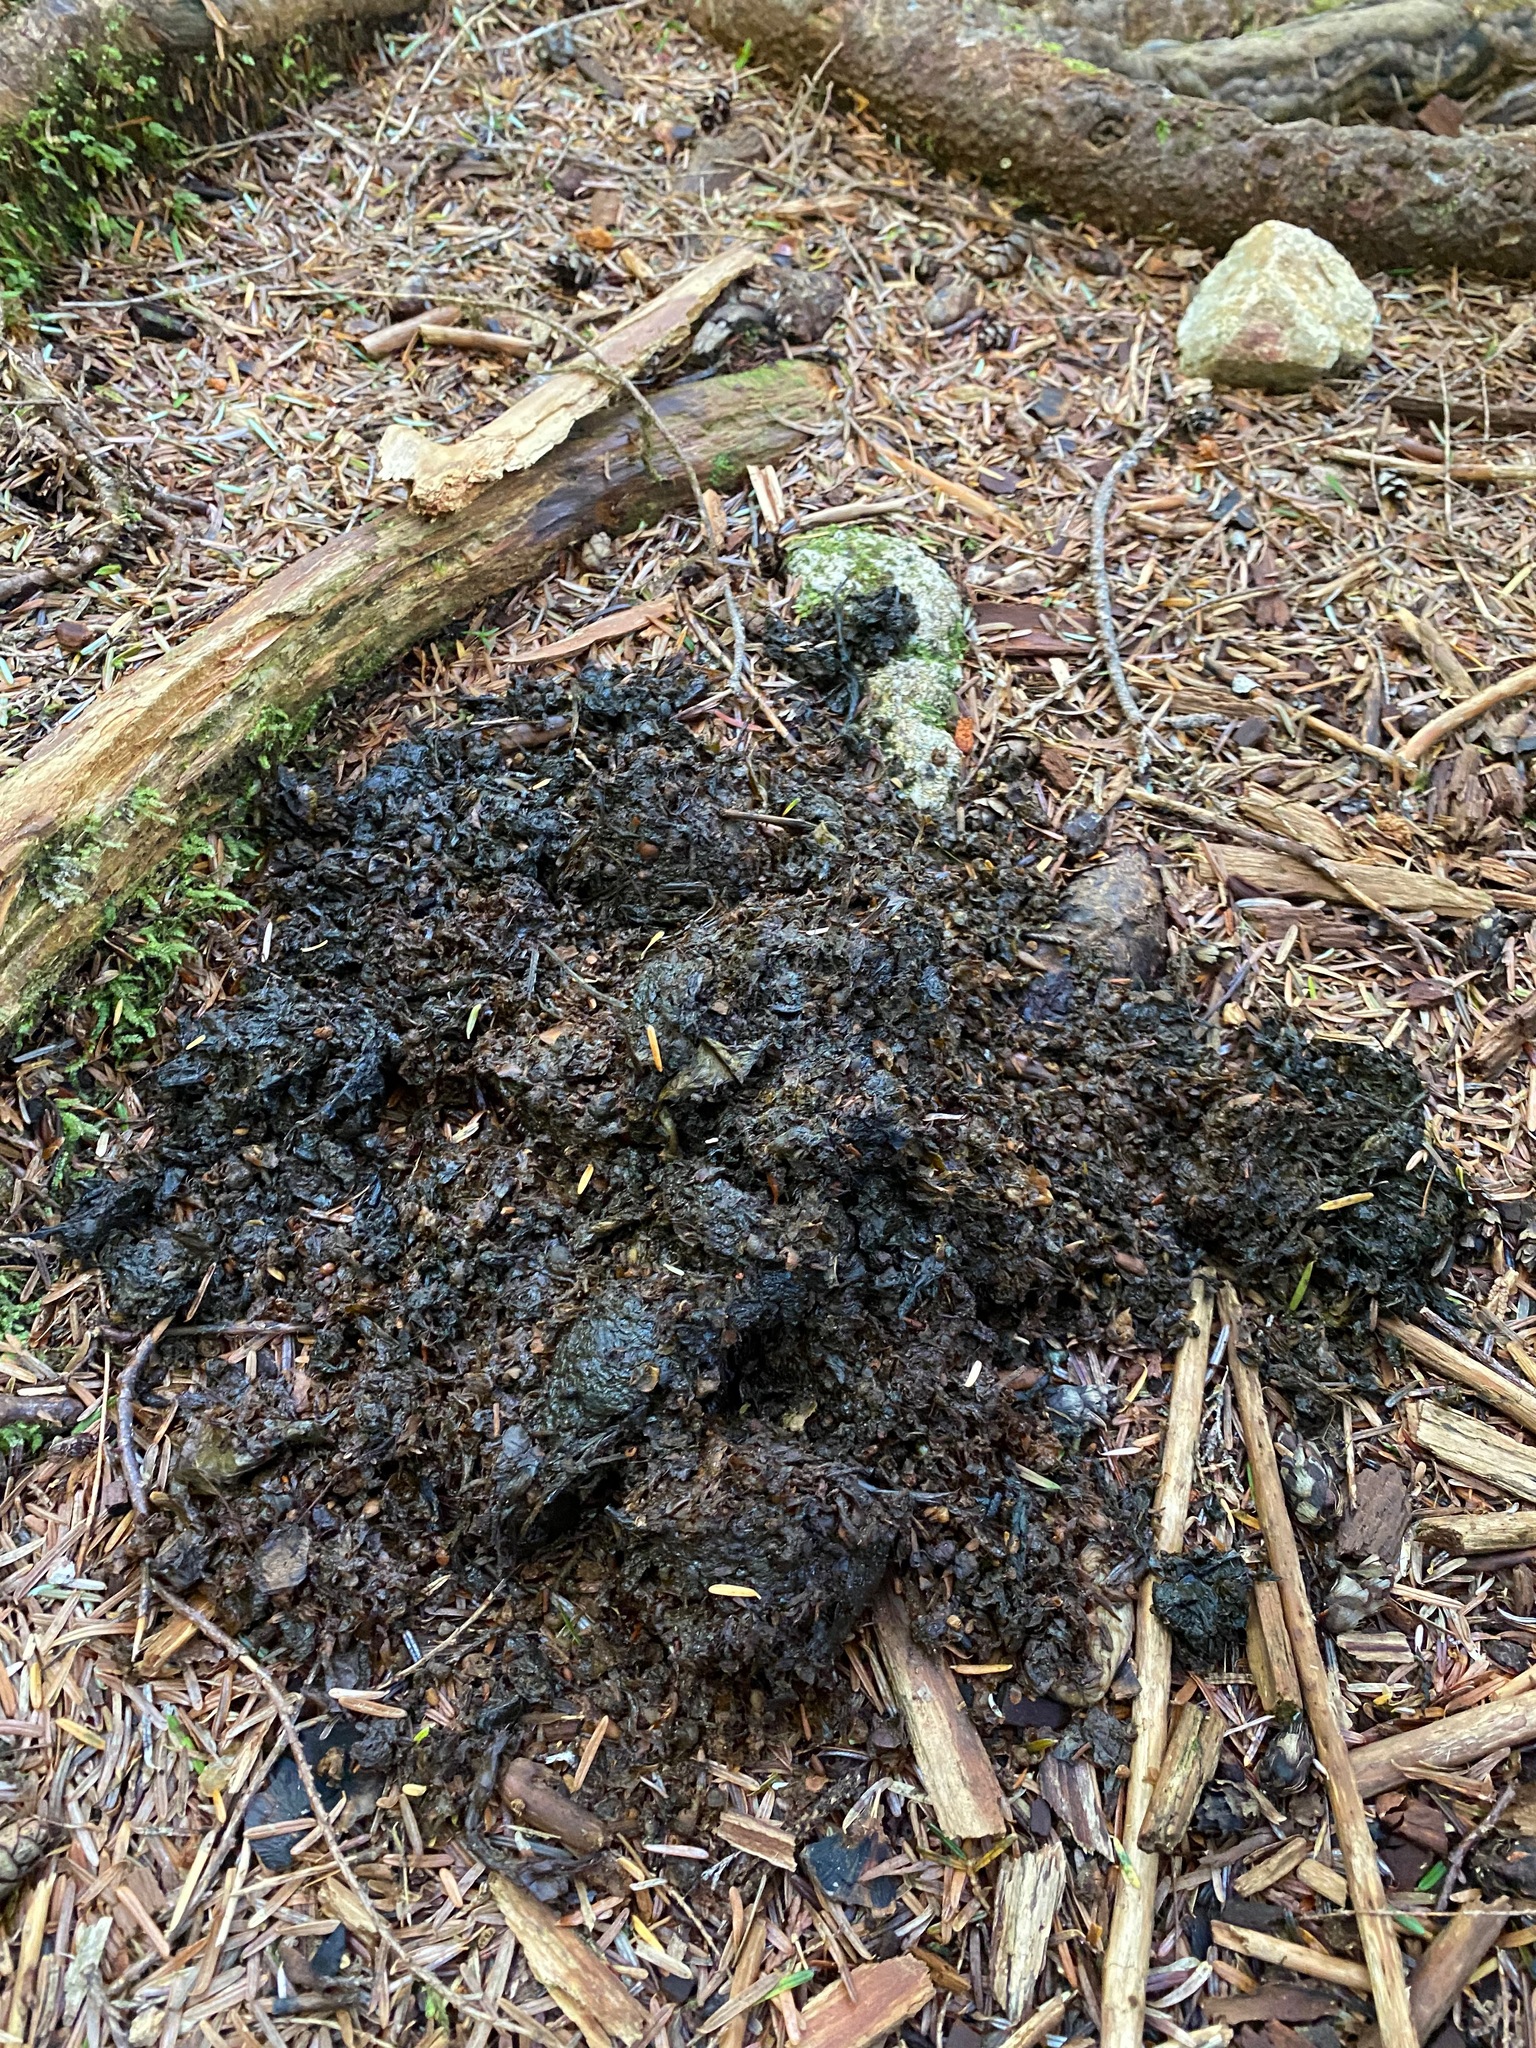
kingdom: Animalia
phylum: Chordata
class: Mammalia
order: Carnivora
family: Ursidae
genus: Ursus
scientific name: Ursus americanus
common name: American black bear
